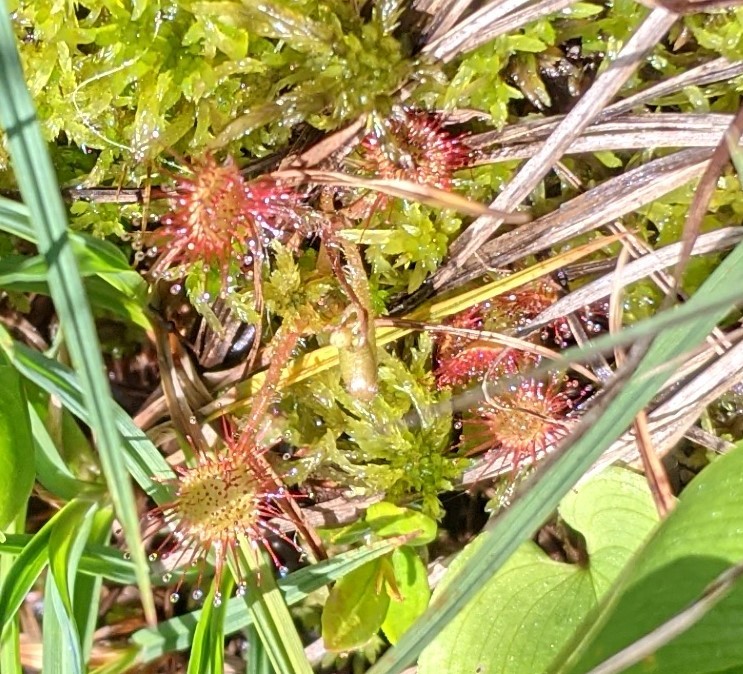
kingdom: Plantae
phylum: Tracheophyta
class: Magnoliopsida
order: Caryophyllales
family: Droseraceae
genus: Drosera
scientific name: Drosera rotundifolia
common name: Round-leaved sundew
